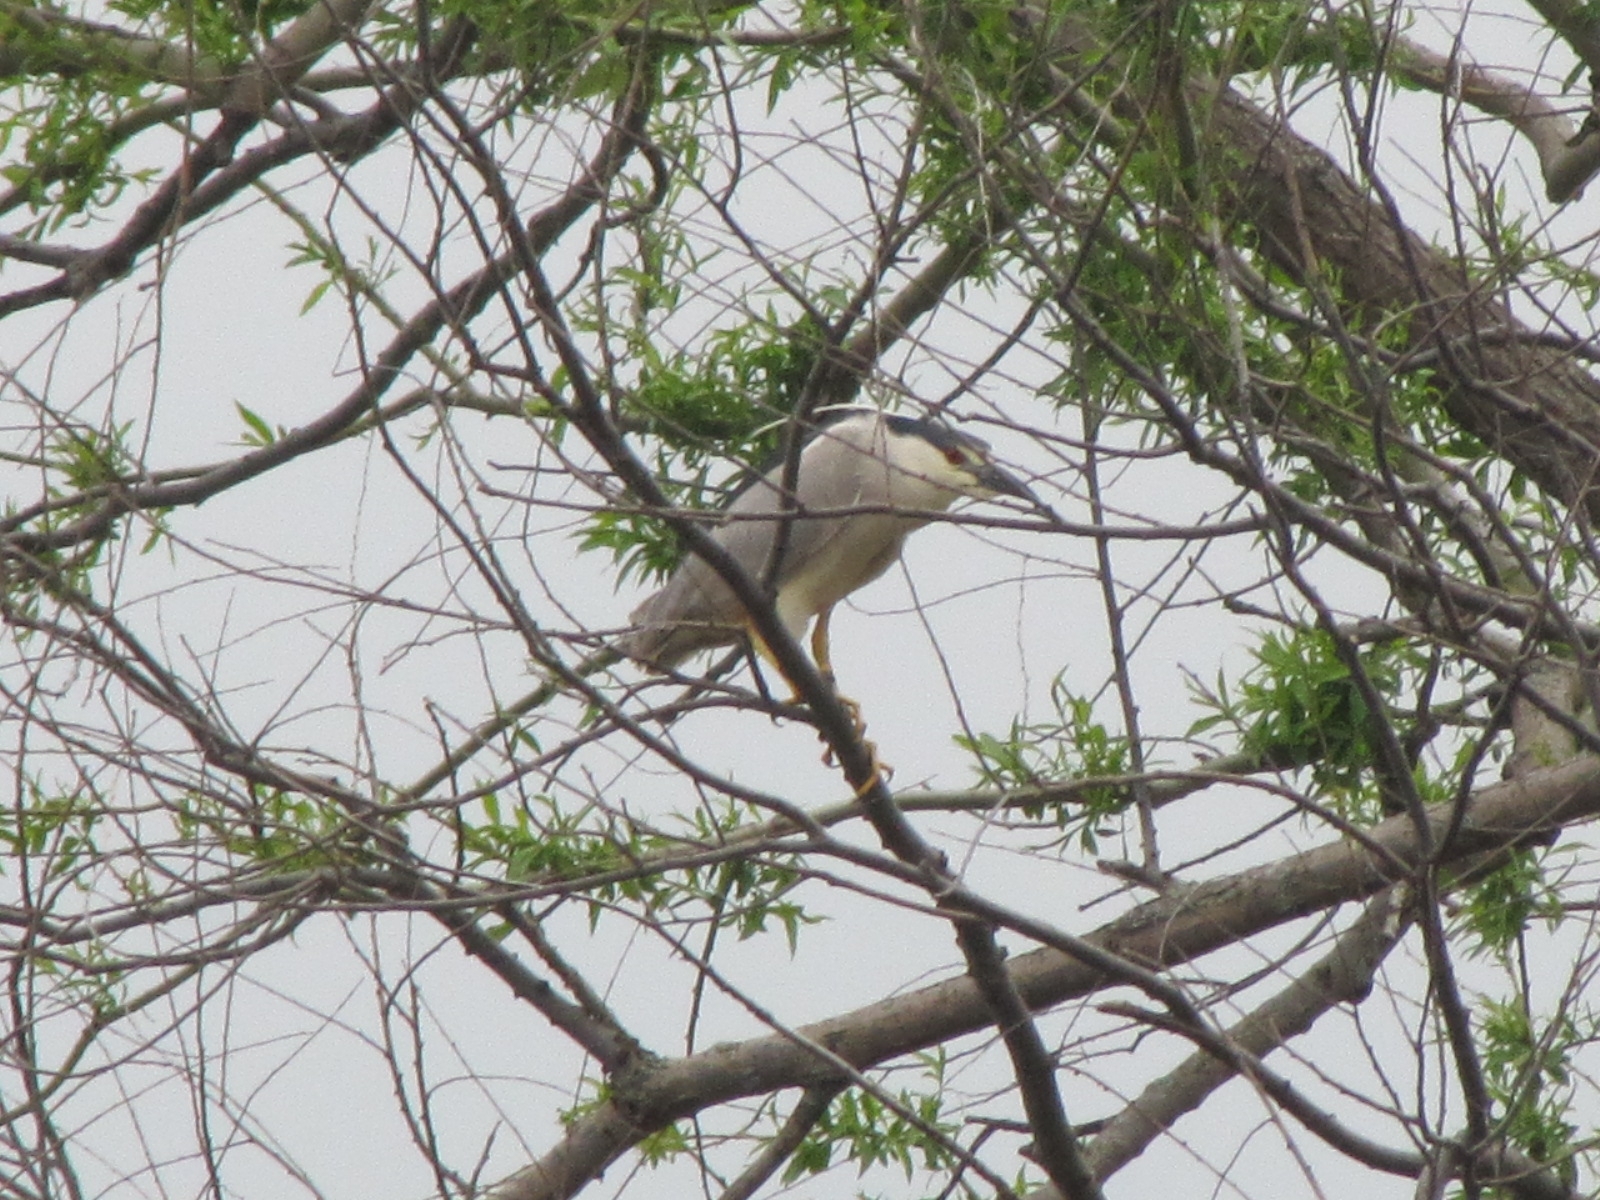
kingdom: Animalia
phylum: Chordata
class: Aves
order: Pelecaniformes
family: Ardeidae
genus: Nycticorax
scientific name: Nycticorax nycticorax
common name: Black-crowned night heron
